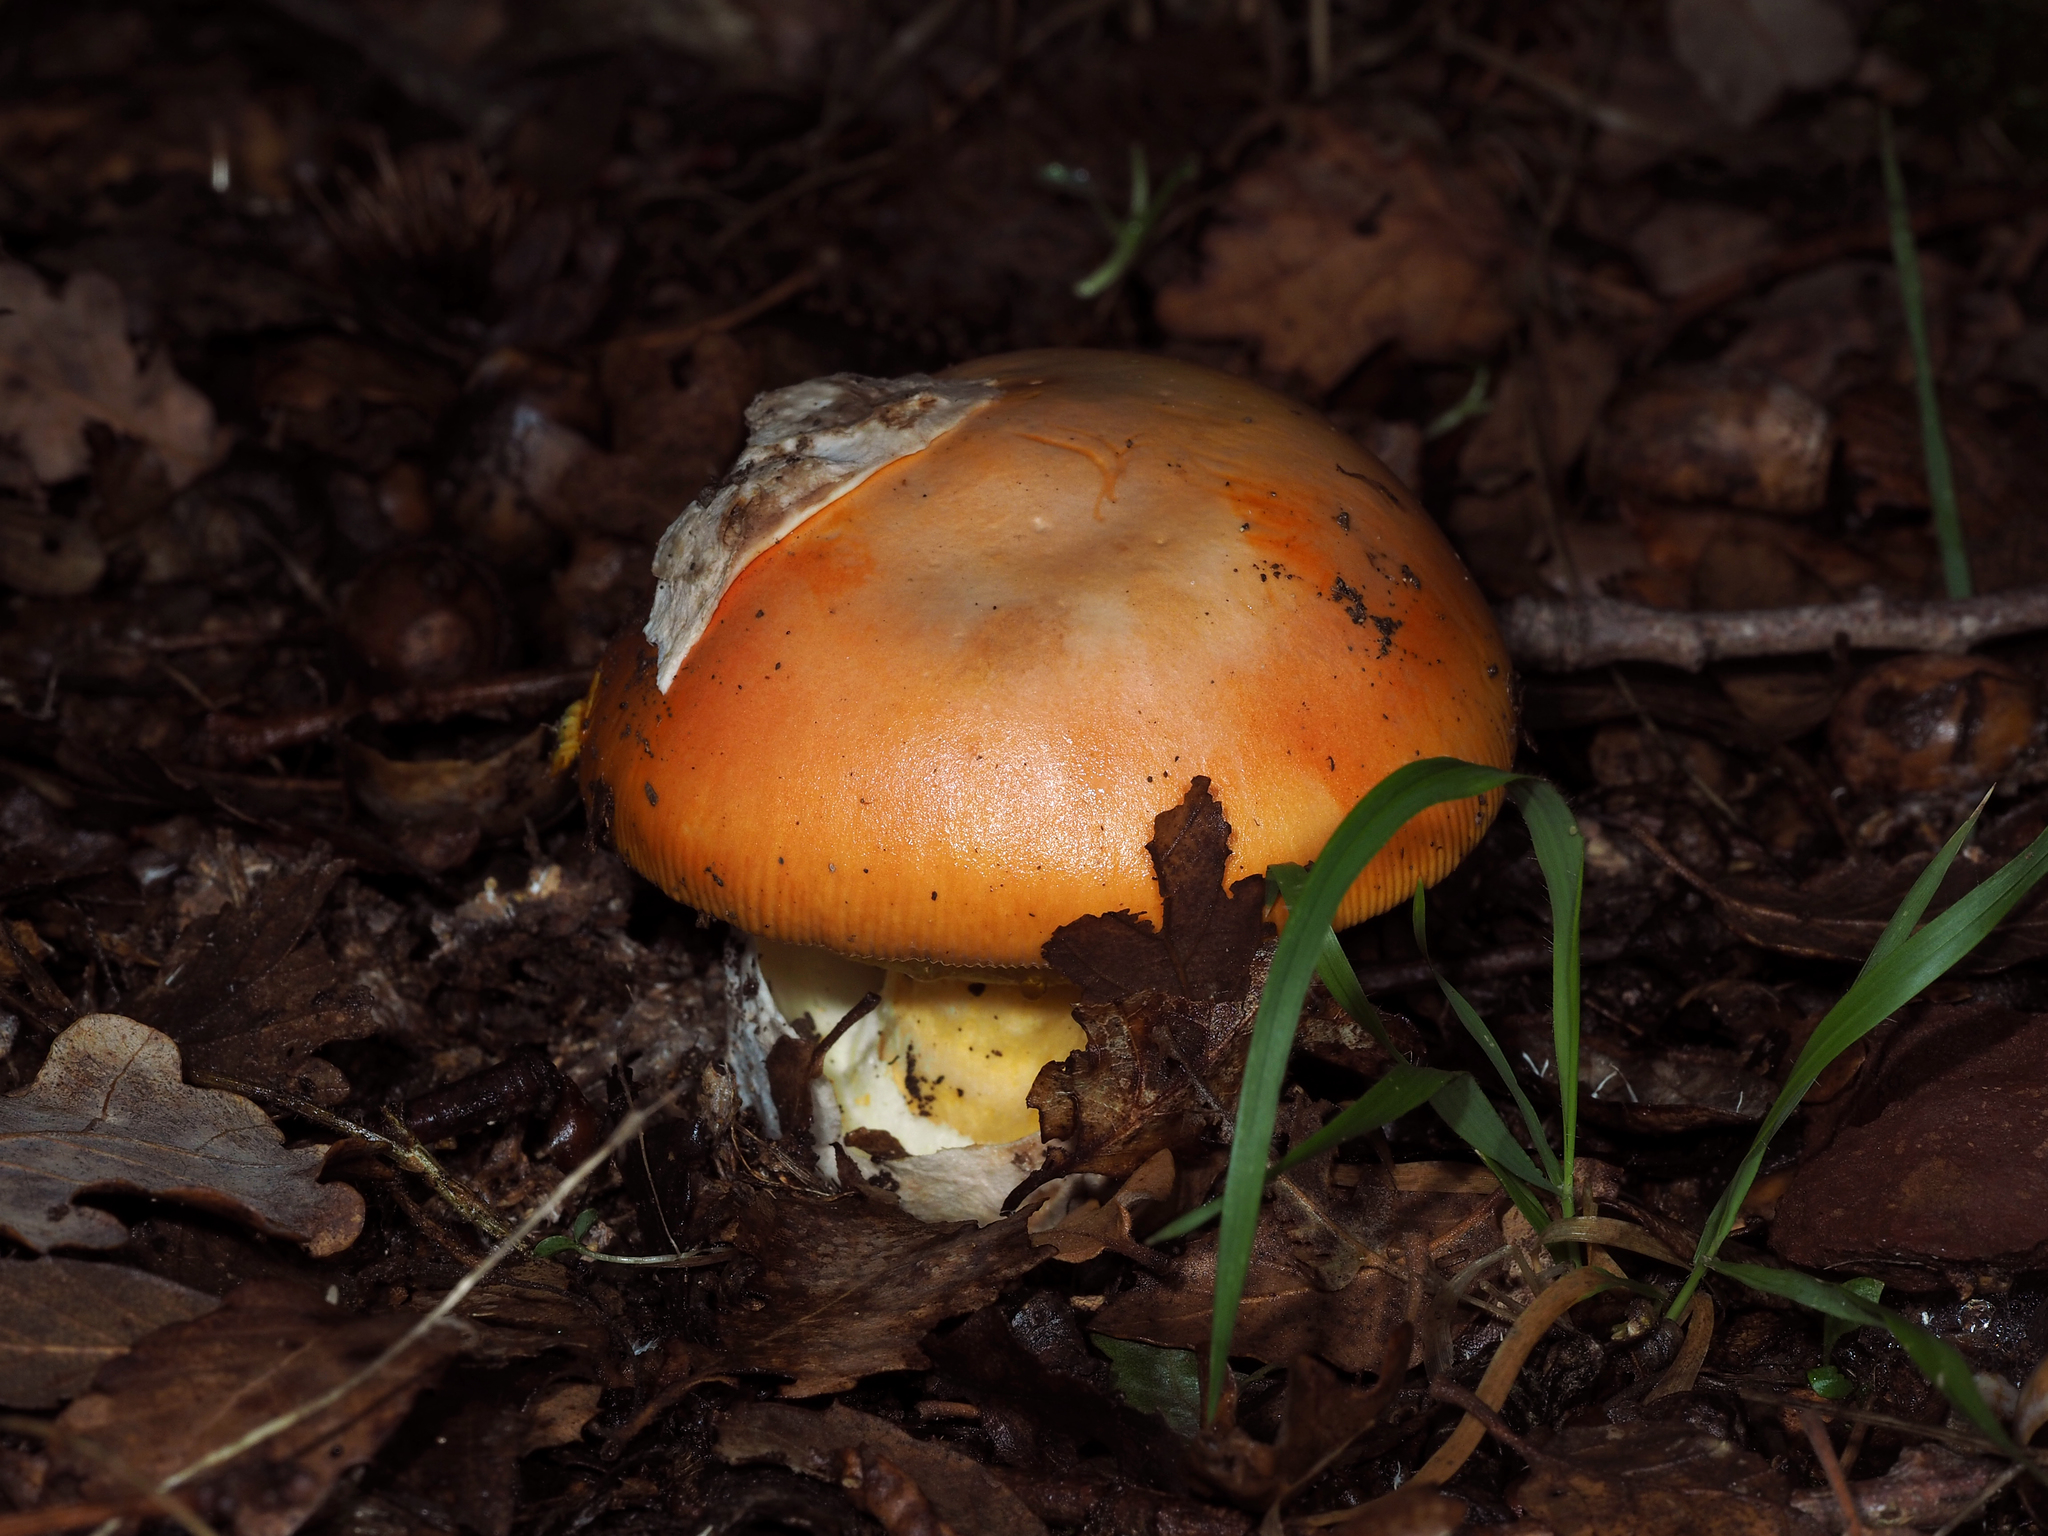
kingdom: Fungi
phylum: Basidiomycota
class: Agaricomycetes
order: Agaricales
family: Amanitaceae
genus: Amanita
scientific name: Amanita caesarea
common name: Caesar's amanita
